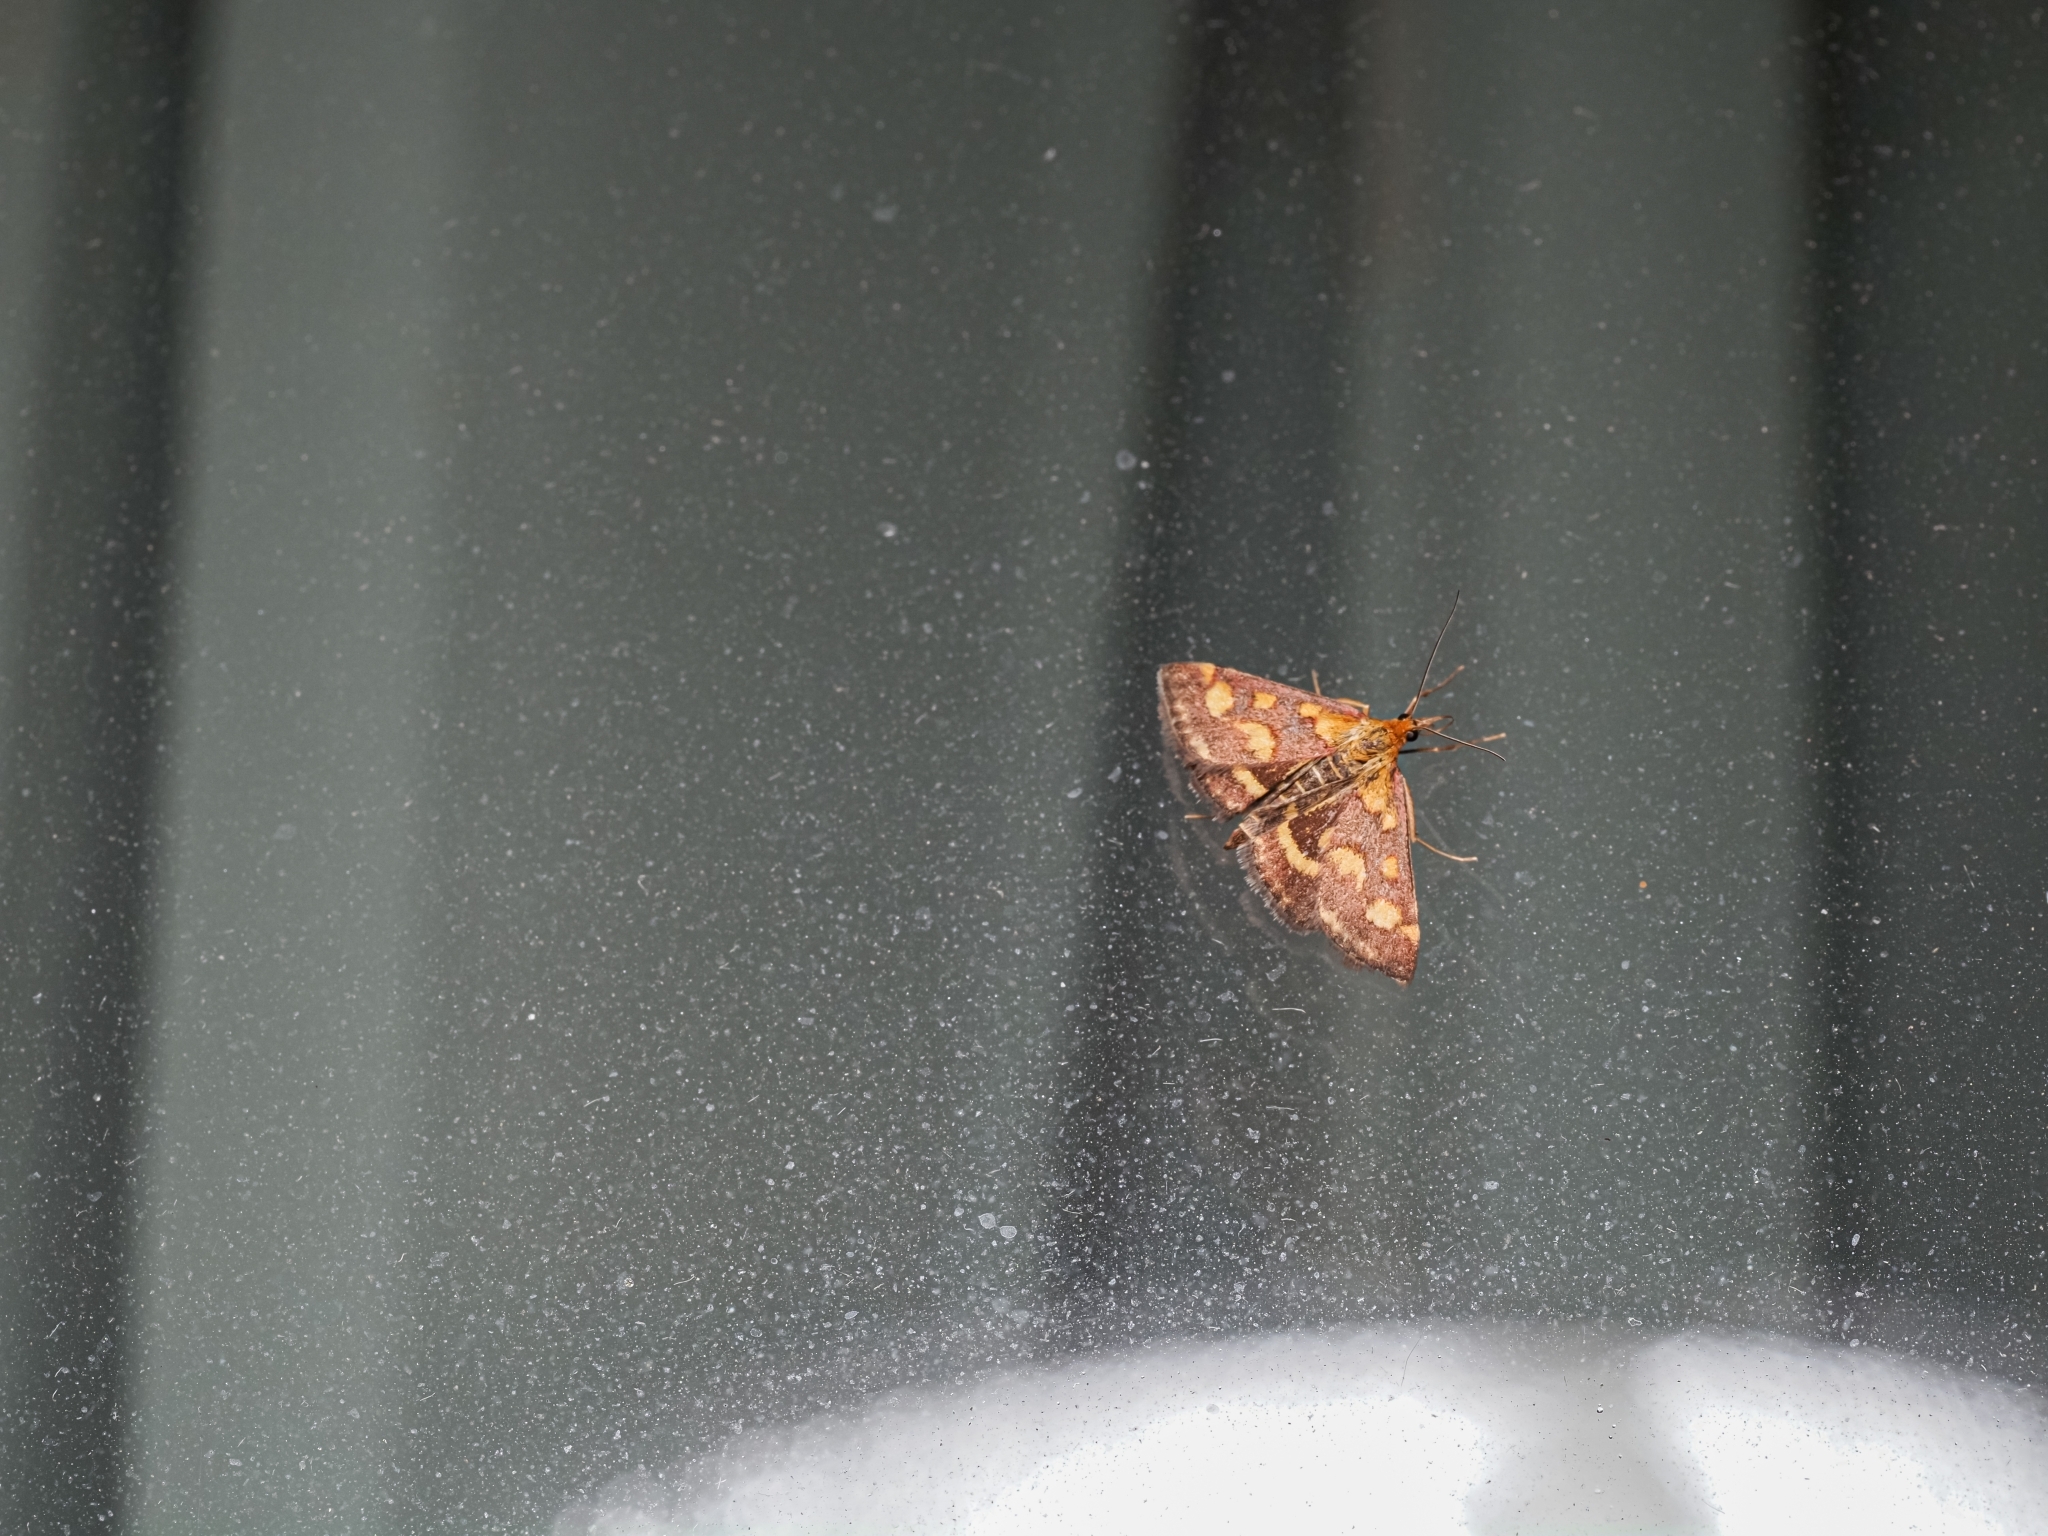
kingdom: Animalia
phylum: Arthropoda
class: Insecta
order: Lepidoptera
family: Crambidae
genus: Pyrausta
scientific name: Pyrausta purpuralis
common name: Common purple & gold
